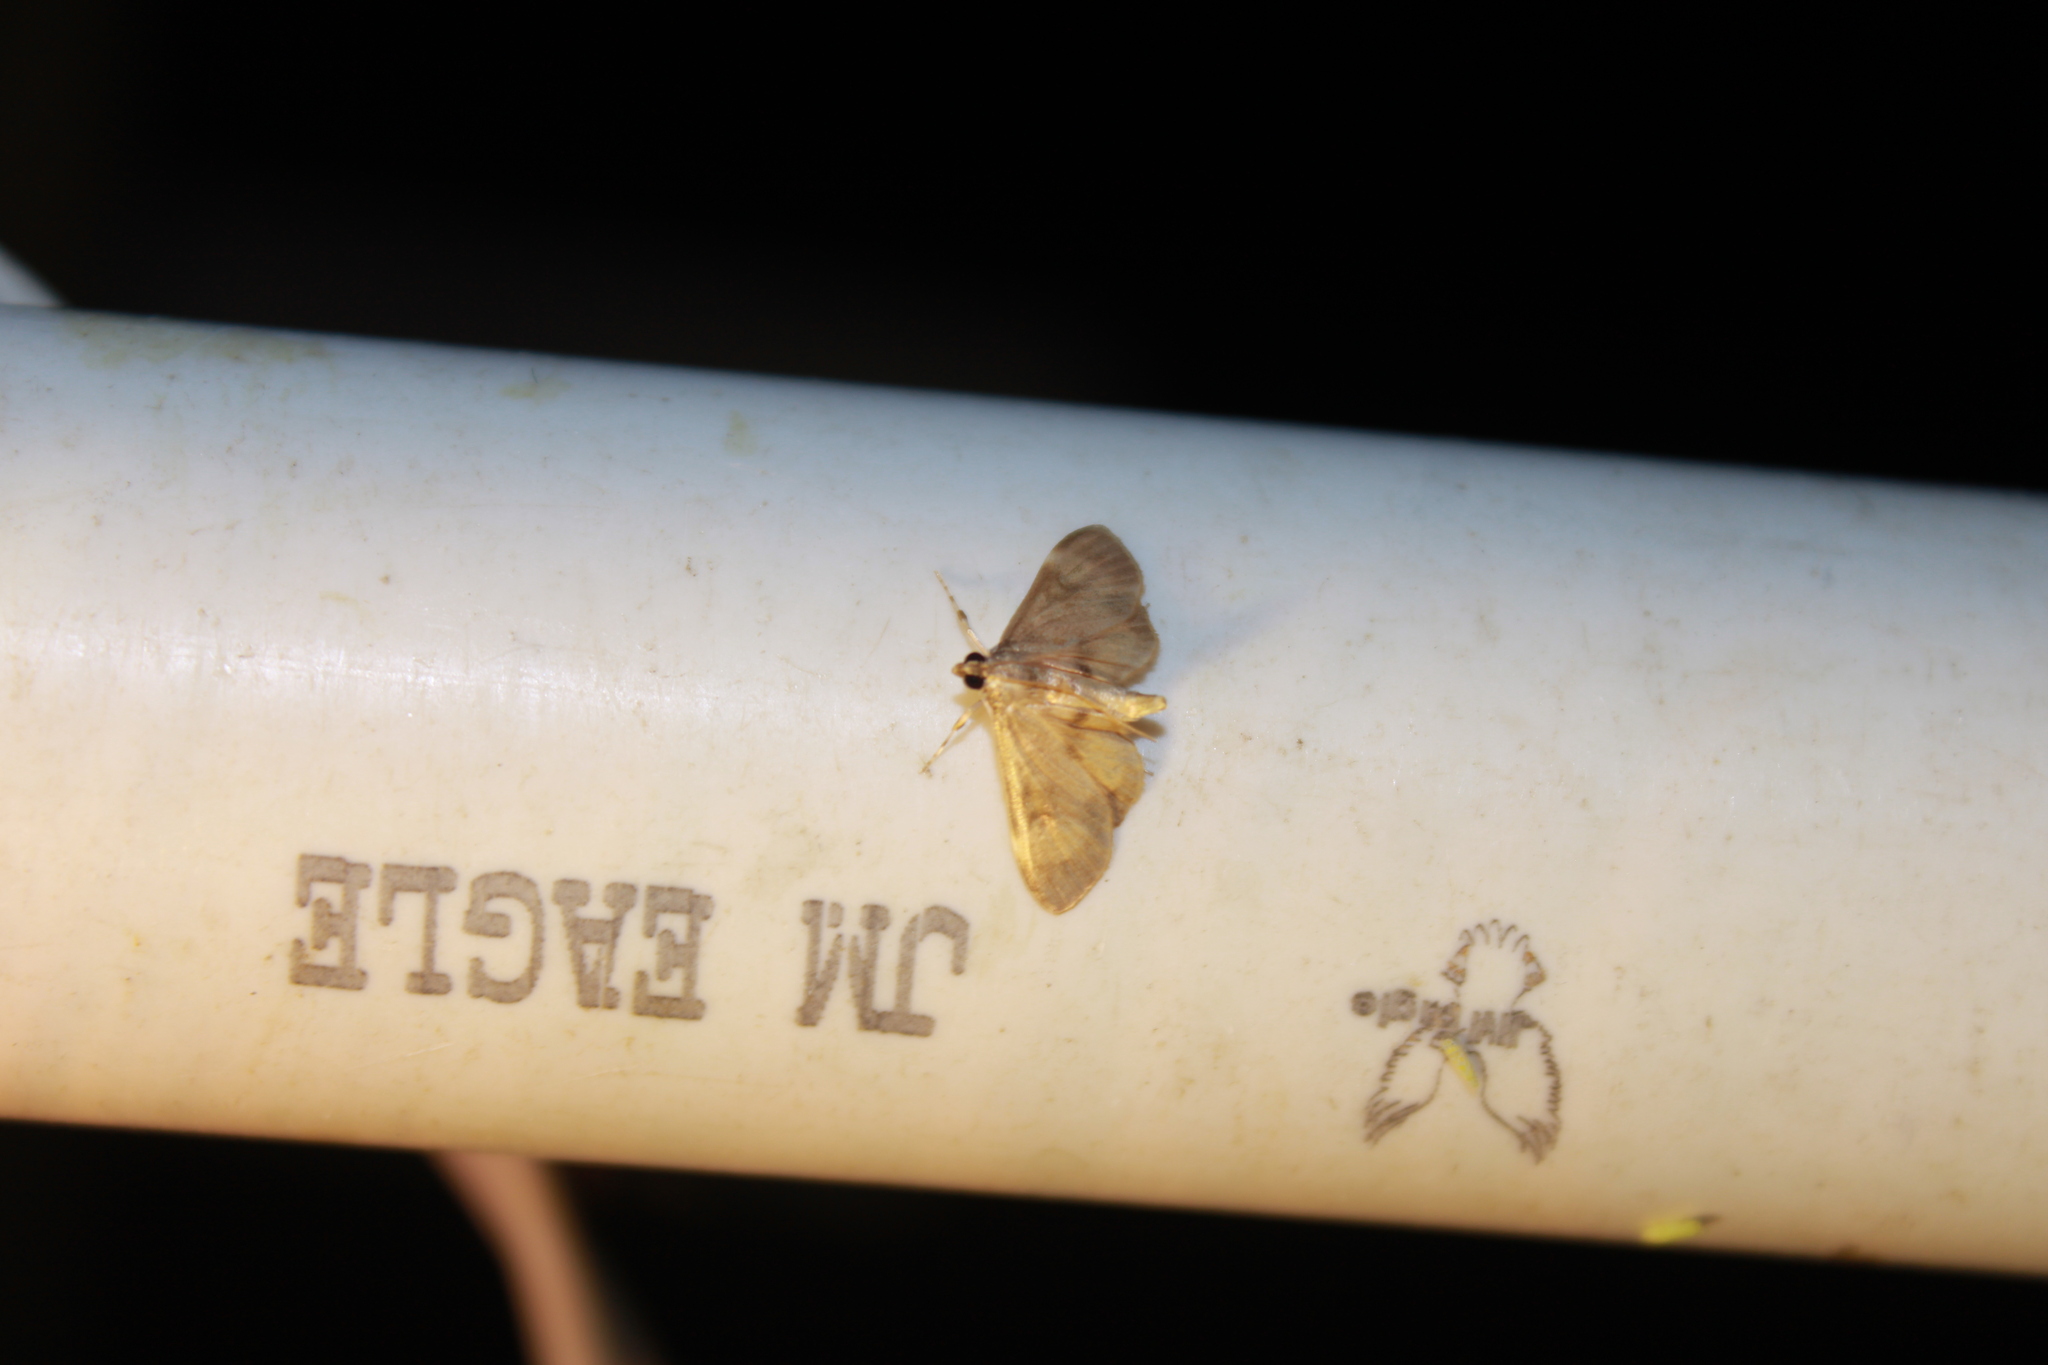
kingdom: Animalia
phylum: Arthropoda
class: Insecta
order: Lepidoptera
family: Crambidae
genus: Lygropia
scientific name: Lygropia fusalis
